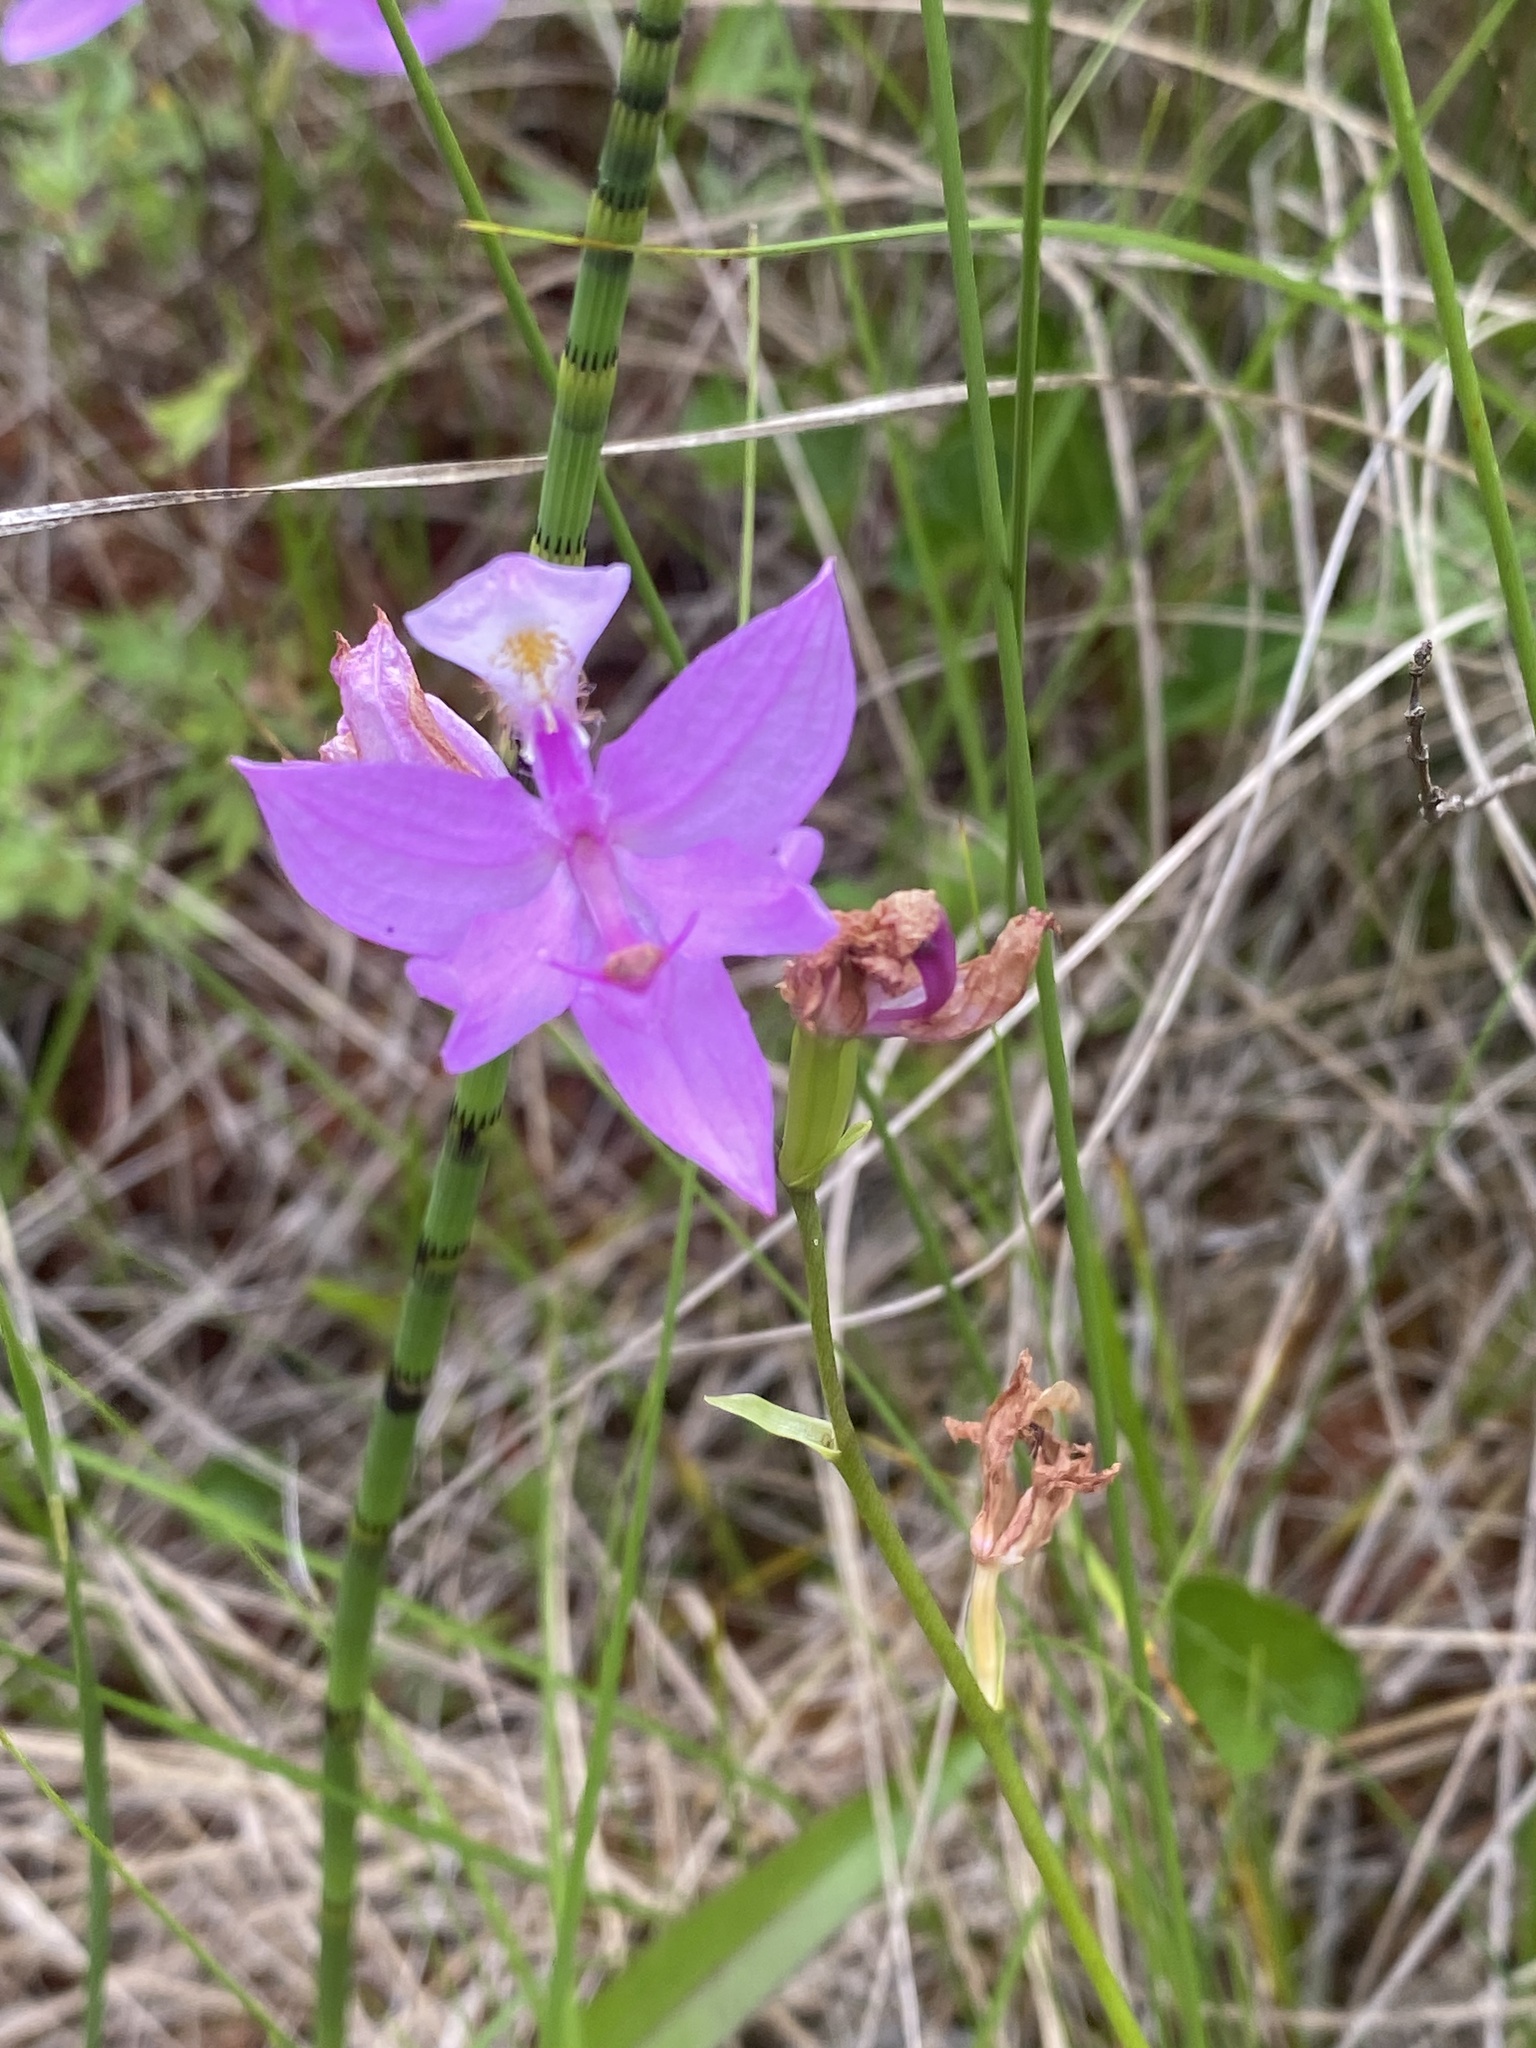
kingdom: Plantae
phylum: Tracheophyta
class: Liliopsida
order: Asparagales
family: Orchidaceae
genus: Calopogon
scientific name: Calopogon tuberosus
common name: Grass-pink
